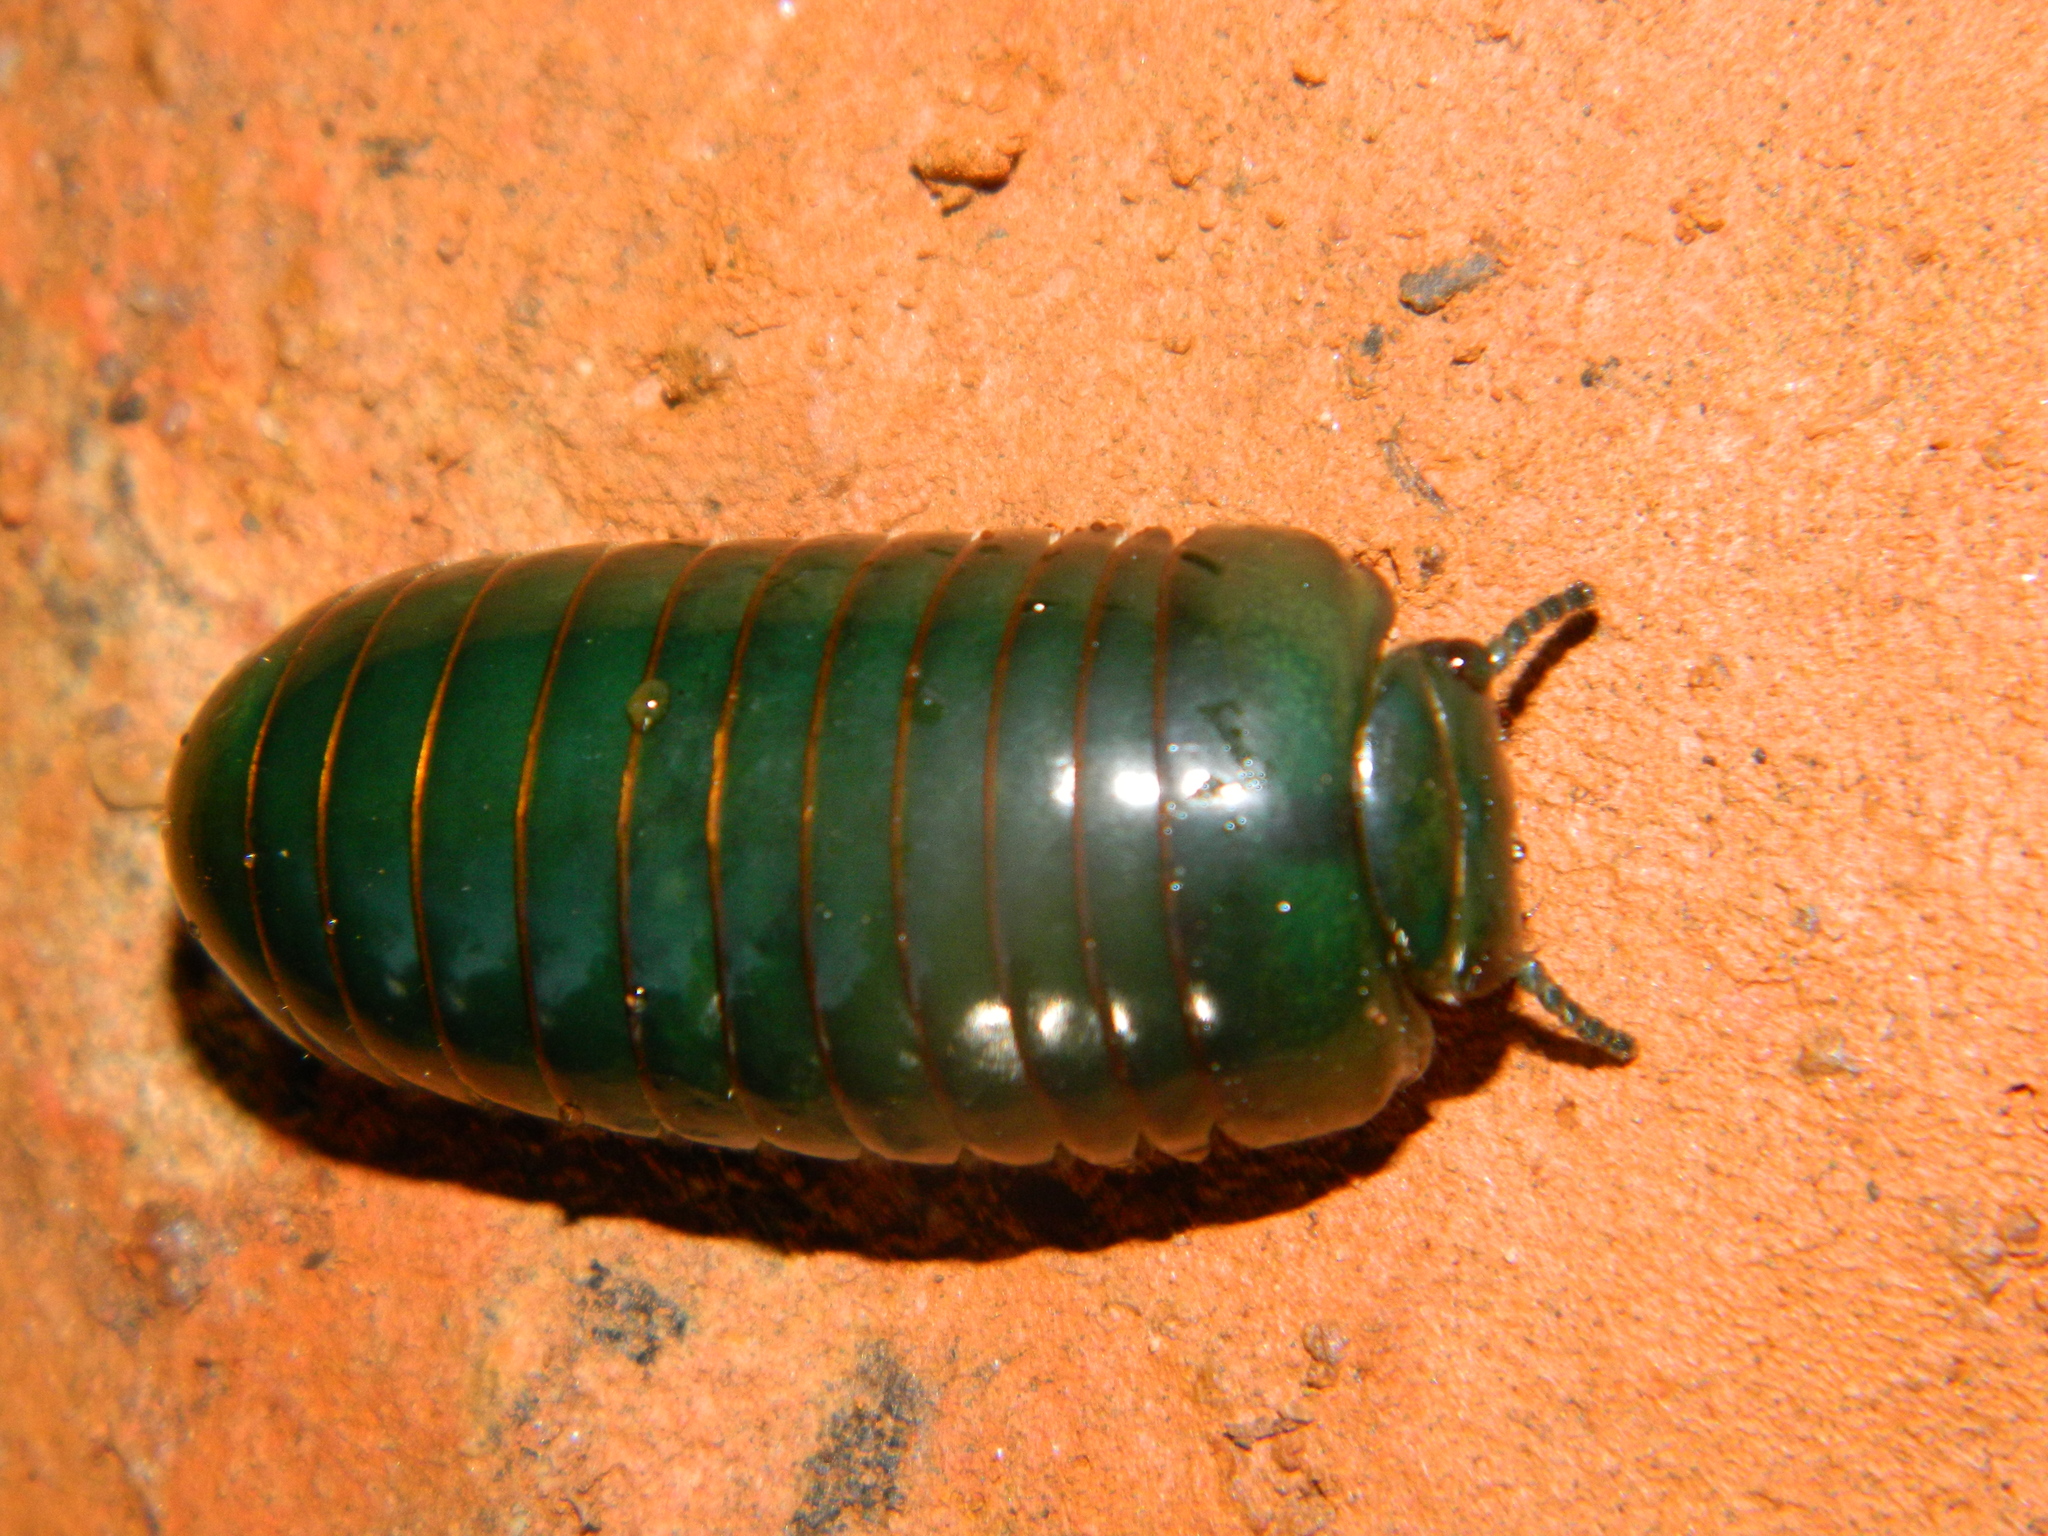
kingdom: Animalia
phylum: Arthropoda
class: Diplopoda
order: Sphaerotheriida
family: Arthrosphaeridae
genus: Zoosphaerium
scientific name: Zoosphaerium neptunus
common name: Emerald green giant pill-millipede
